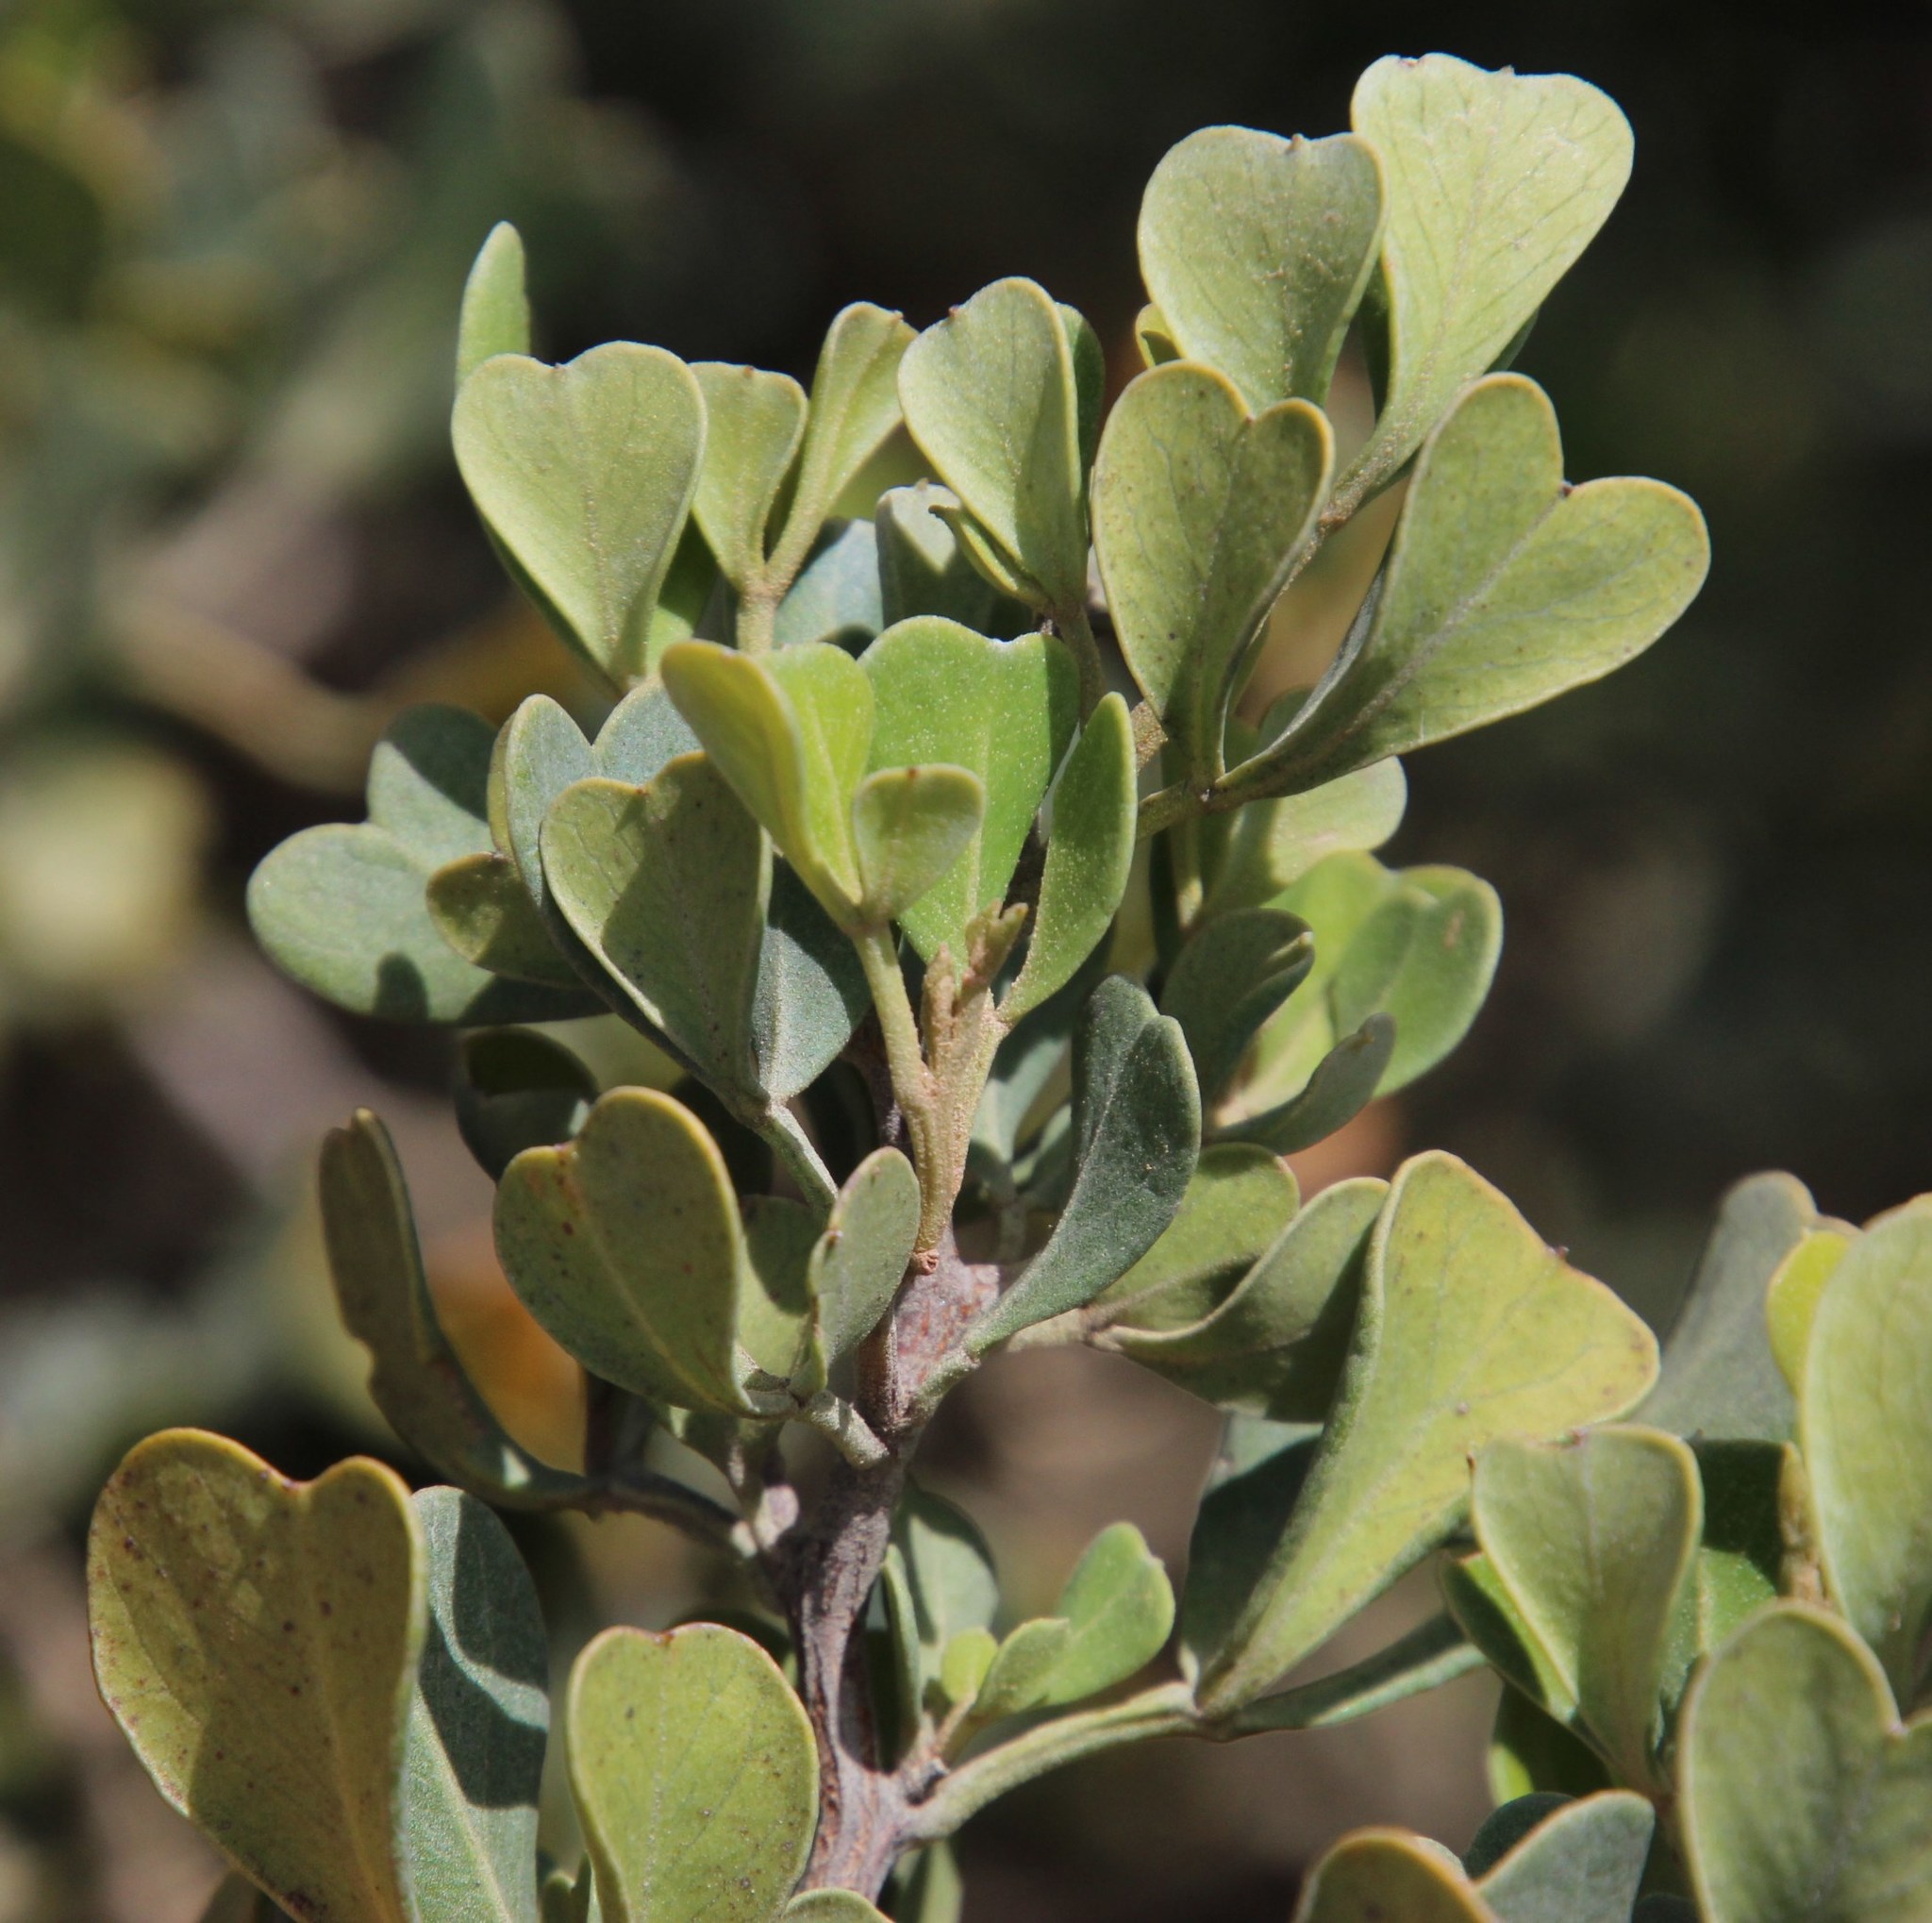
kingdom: Plantae
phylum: Tracheophyta
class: Magnoliopsida
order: Sapindales
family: Anacardiaceae
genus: Searsia
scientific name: Searsia glauca
